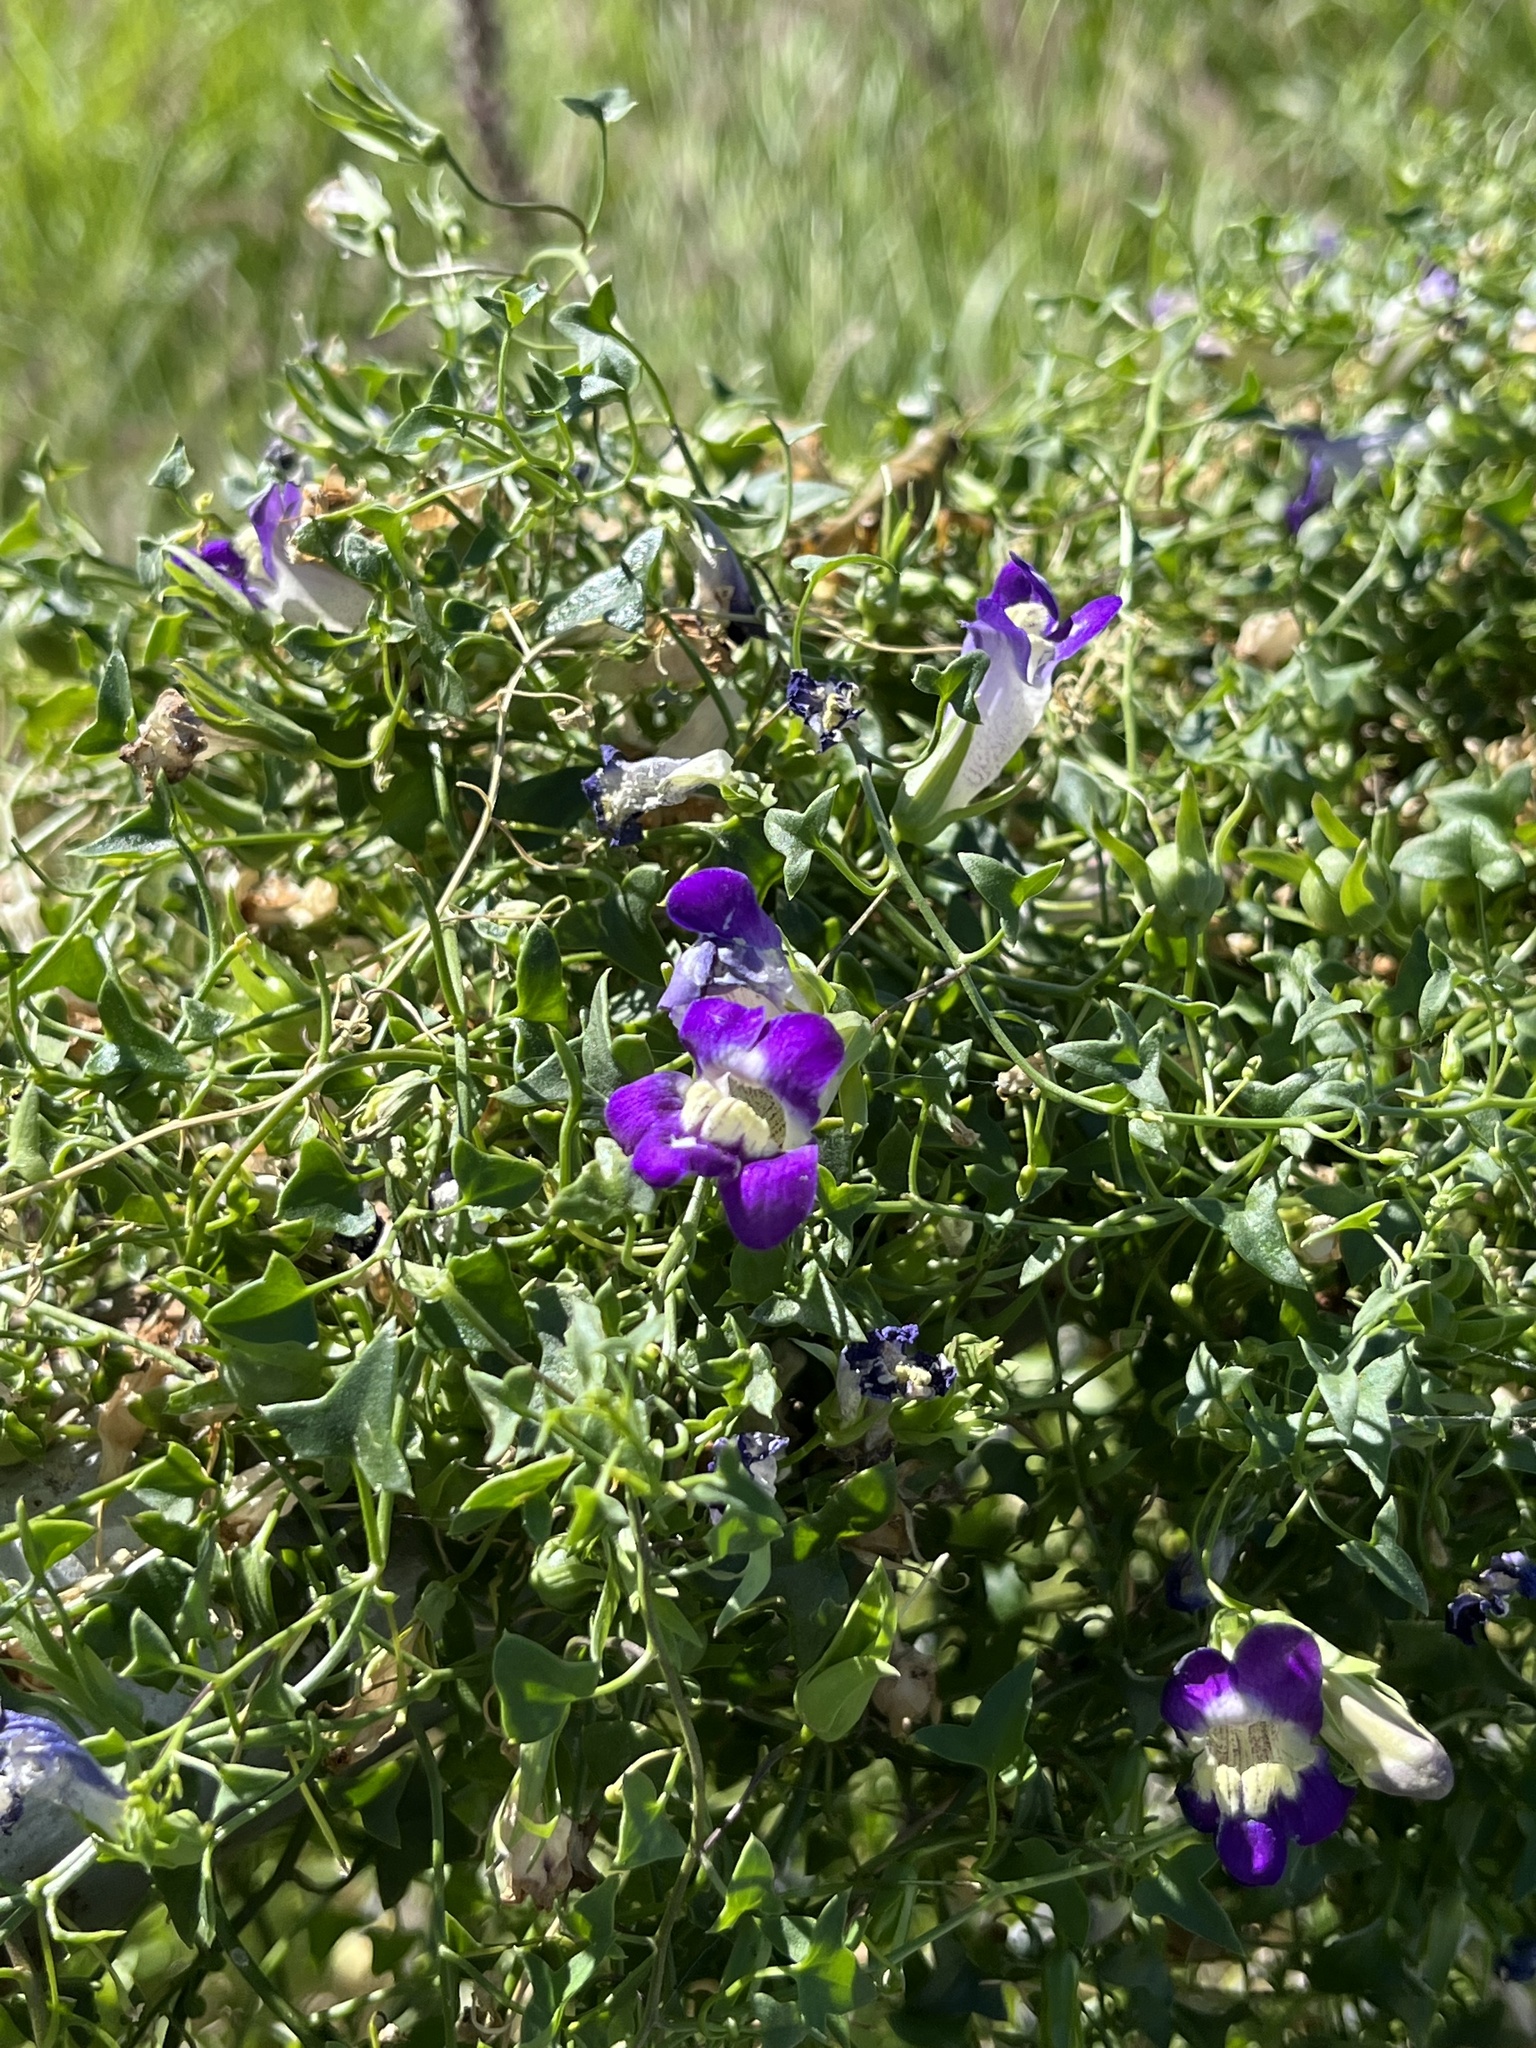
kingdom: Plantae
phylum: Tracheophyta
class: Magnoliopsida
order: Lamiales
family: Plantaginaceae
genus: Maurandella
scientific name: Maurandella antirrhiniflora
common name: Violet twining-snapdragon
